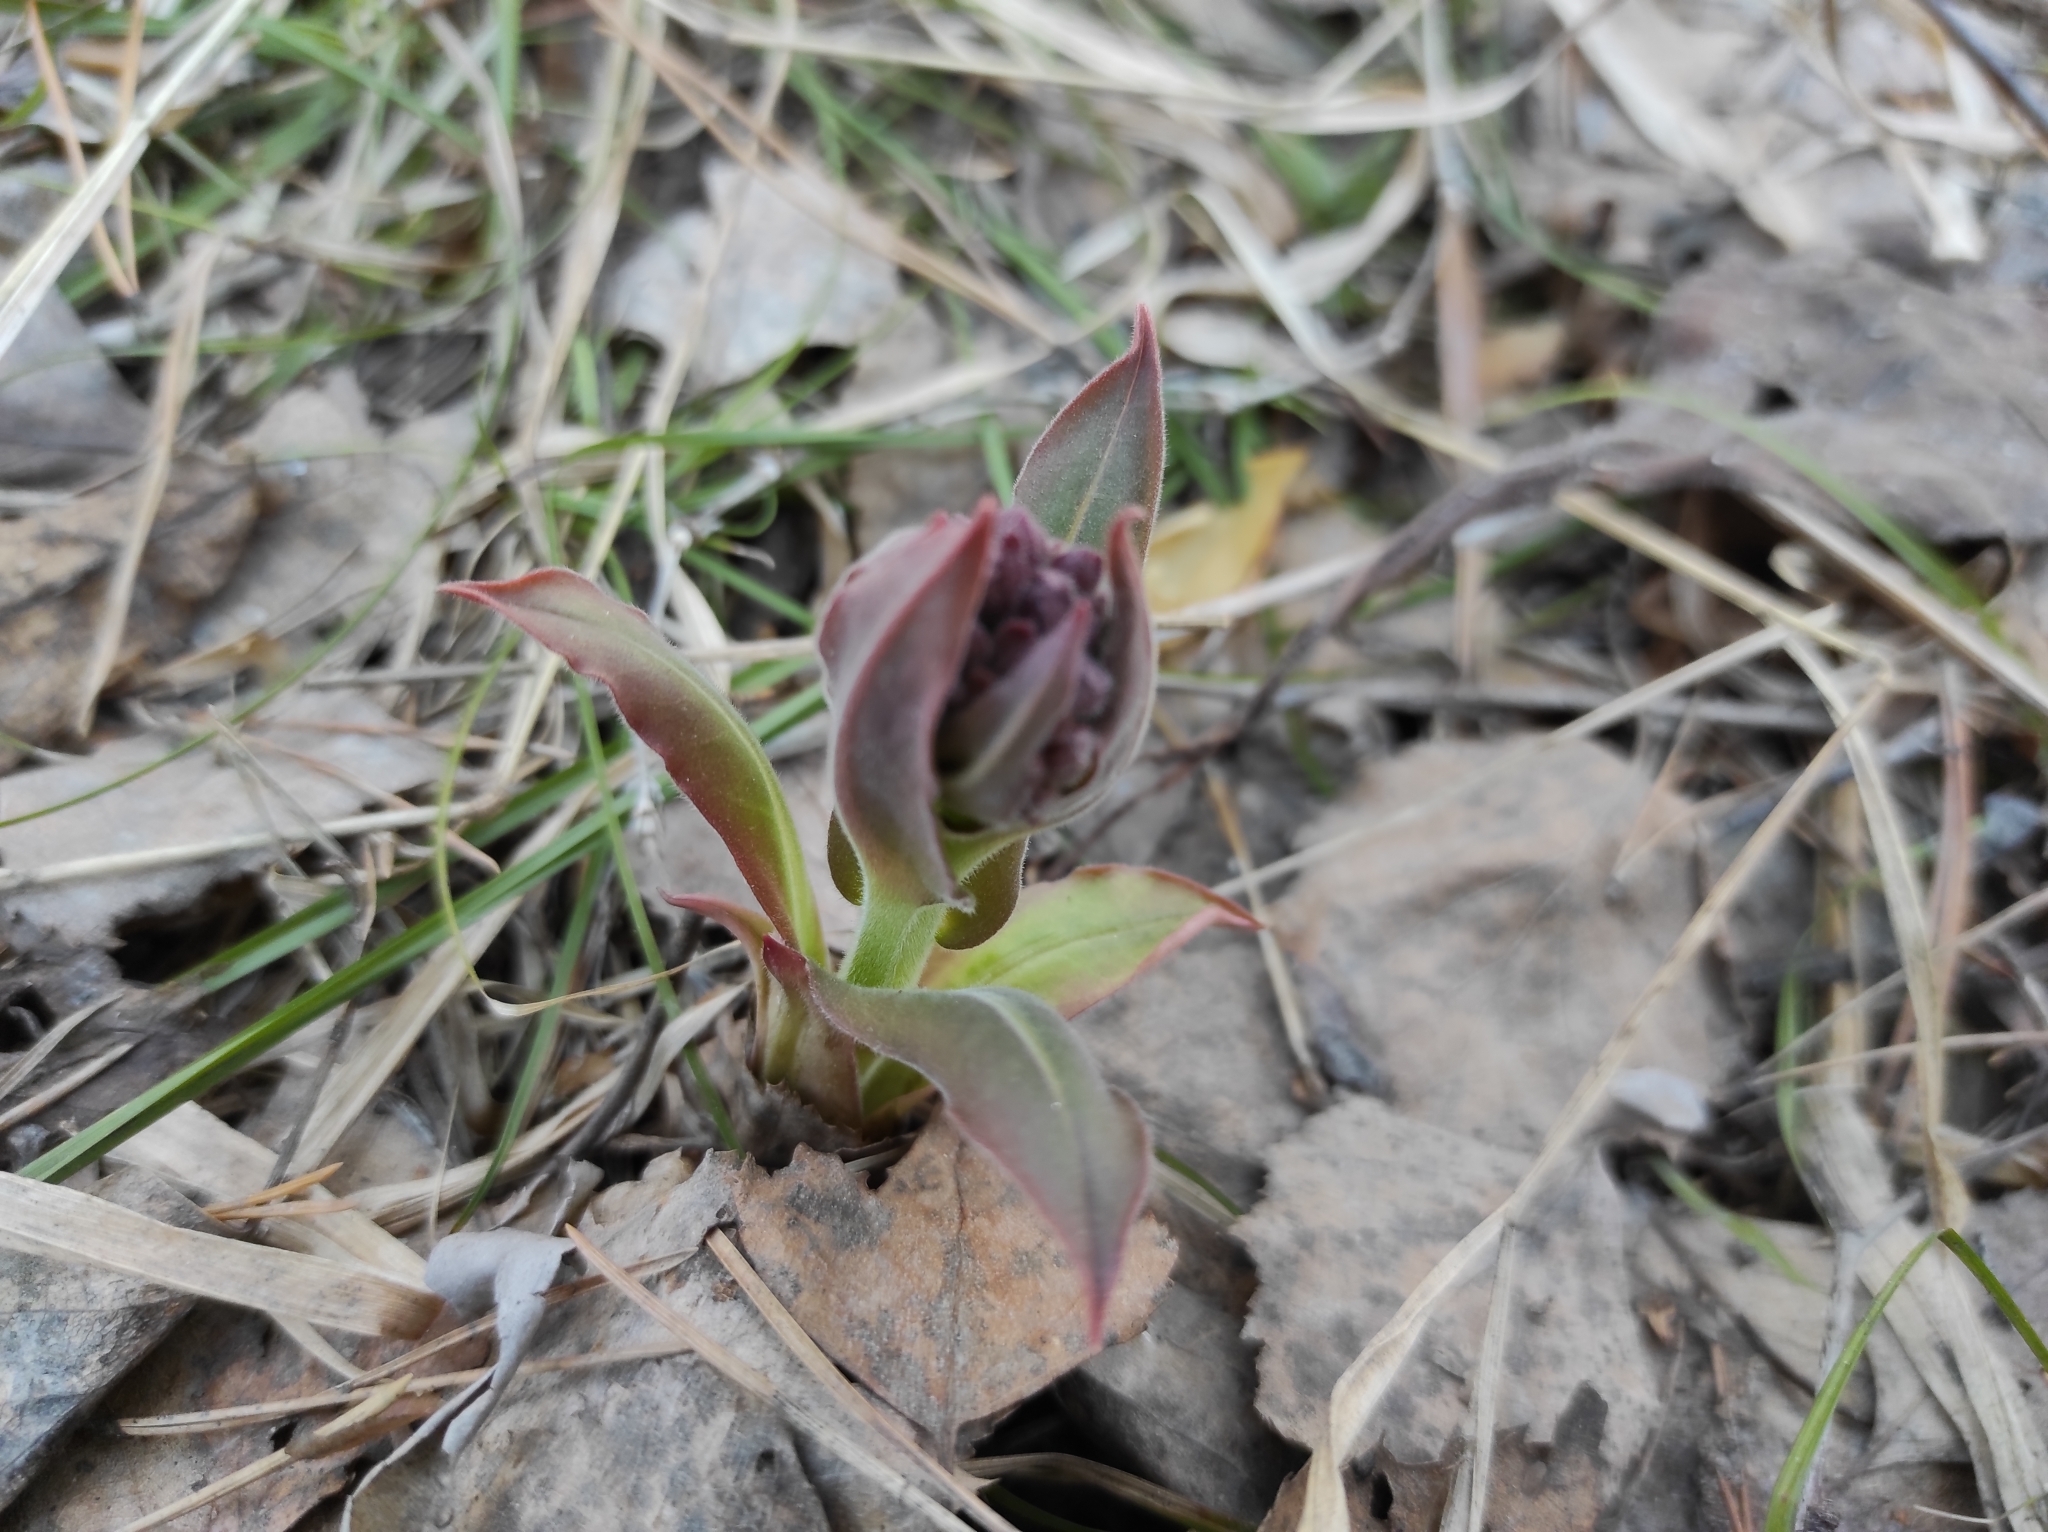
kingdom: Plantae
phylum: Tracheophyta
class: Magnoliopsida
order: Boraginales
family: Boraginaceae
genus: Pulmonaria
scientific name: Pulmonaria mollis
